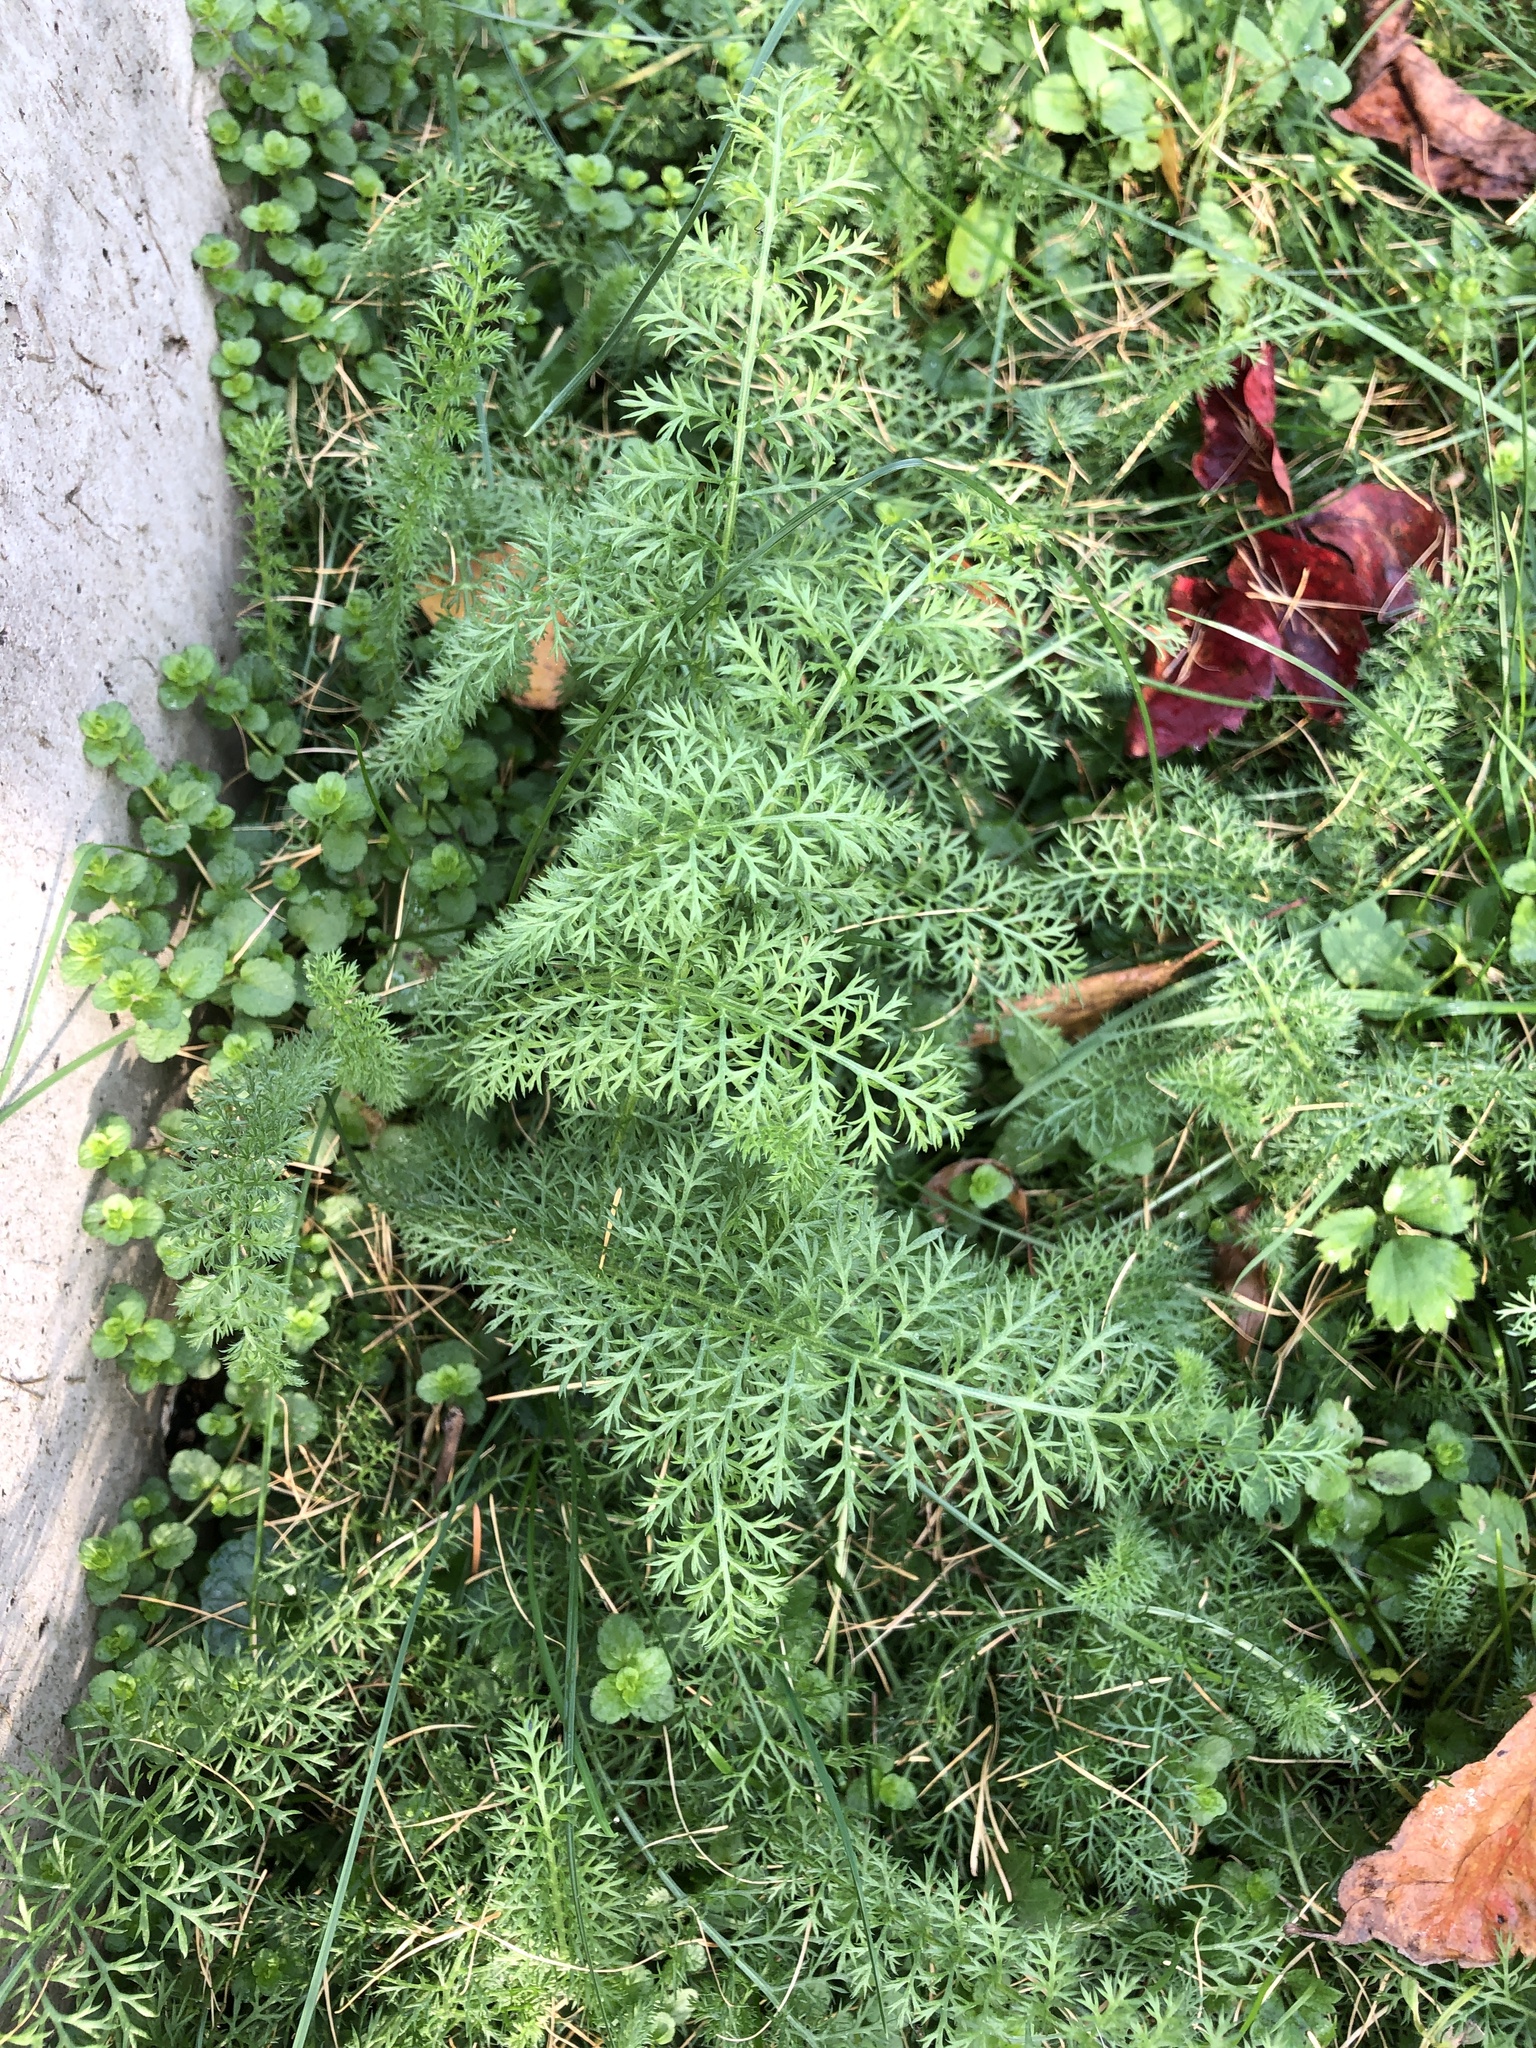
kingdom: Plantae
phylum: Tracheophyta
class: Magnoliopsida
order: Asterales
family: Asteraceae
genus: Achillea
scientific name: Achillea millefolium
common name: Yarrow
